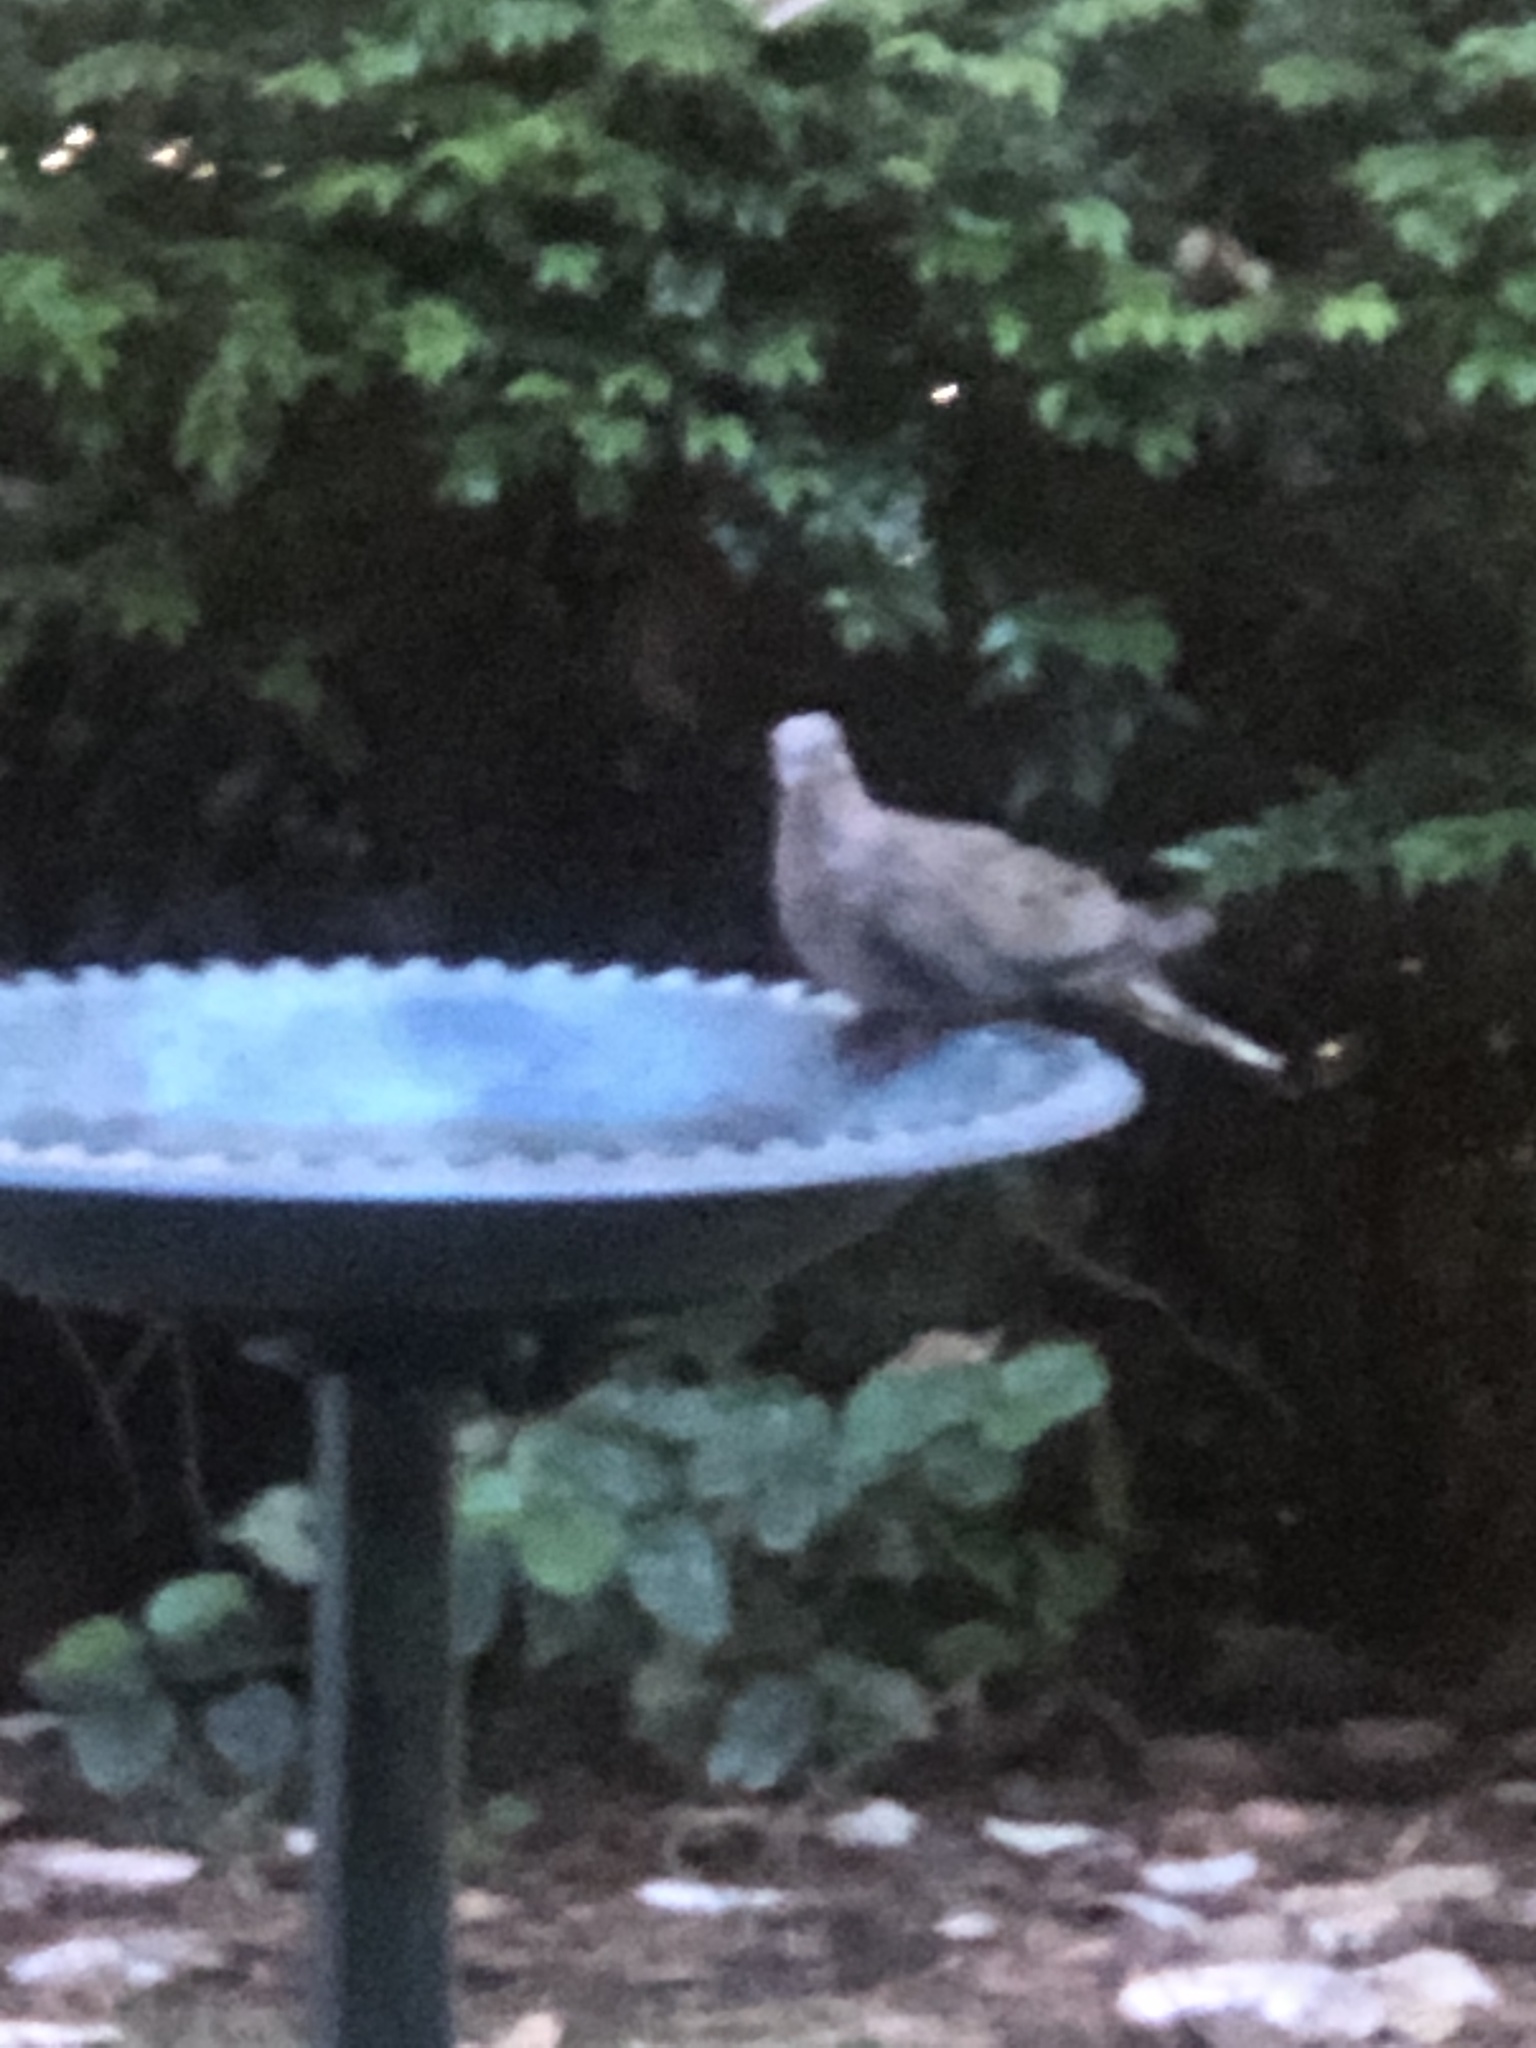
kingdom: Animalia
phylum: Chordata
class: Aves
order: Columbiformes
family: Columbidae
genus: Zenaida
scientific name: Zenaida macroura
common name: Mourning dove
